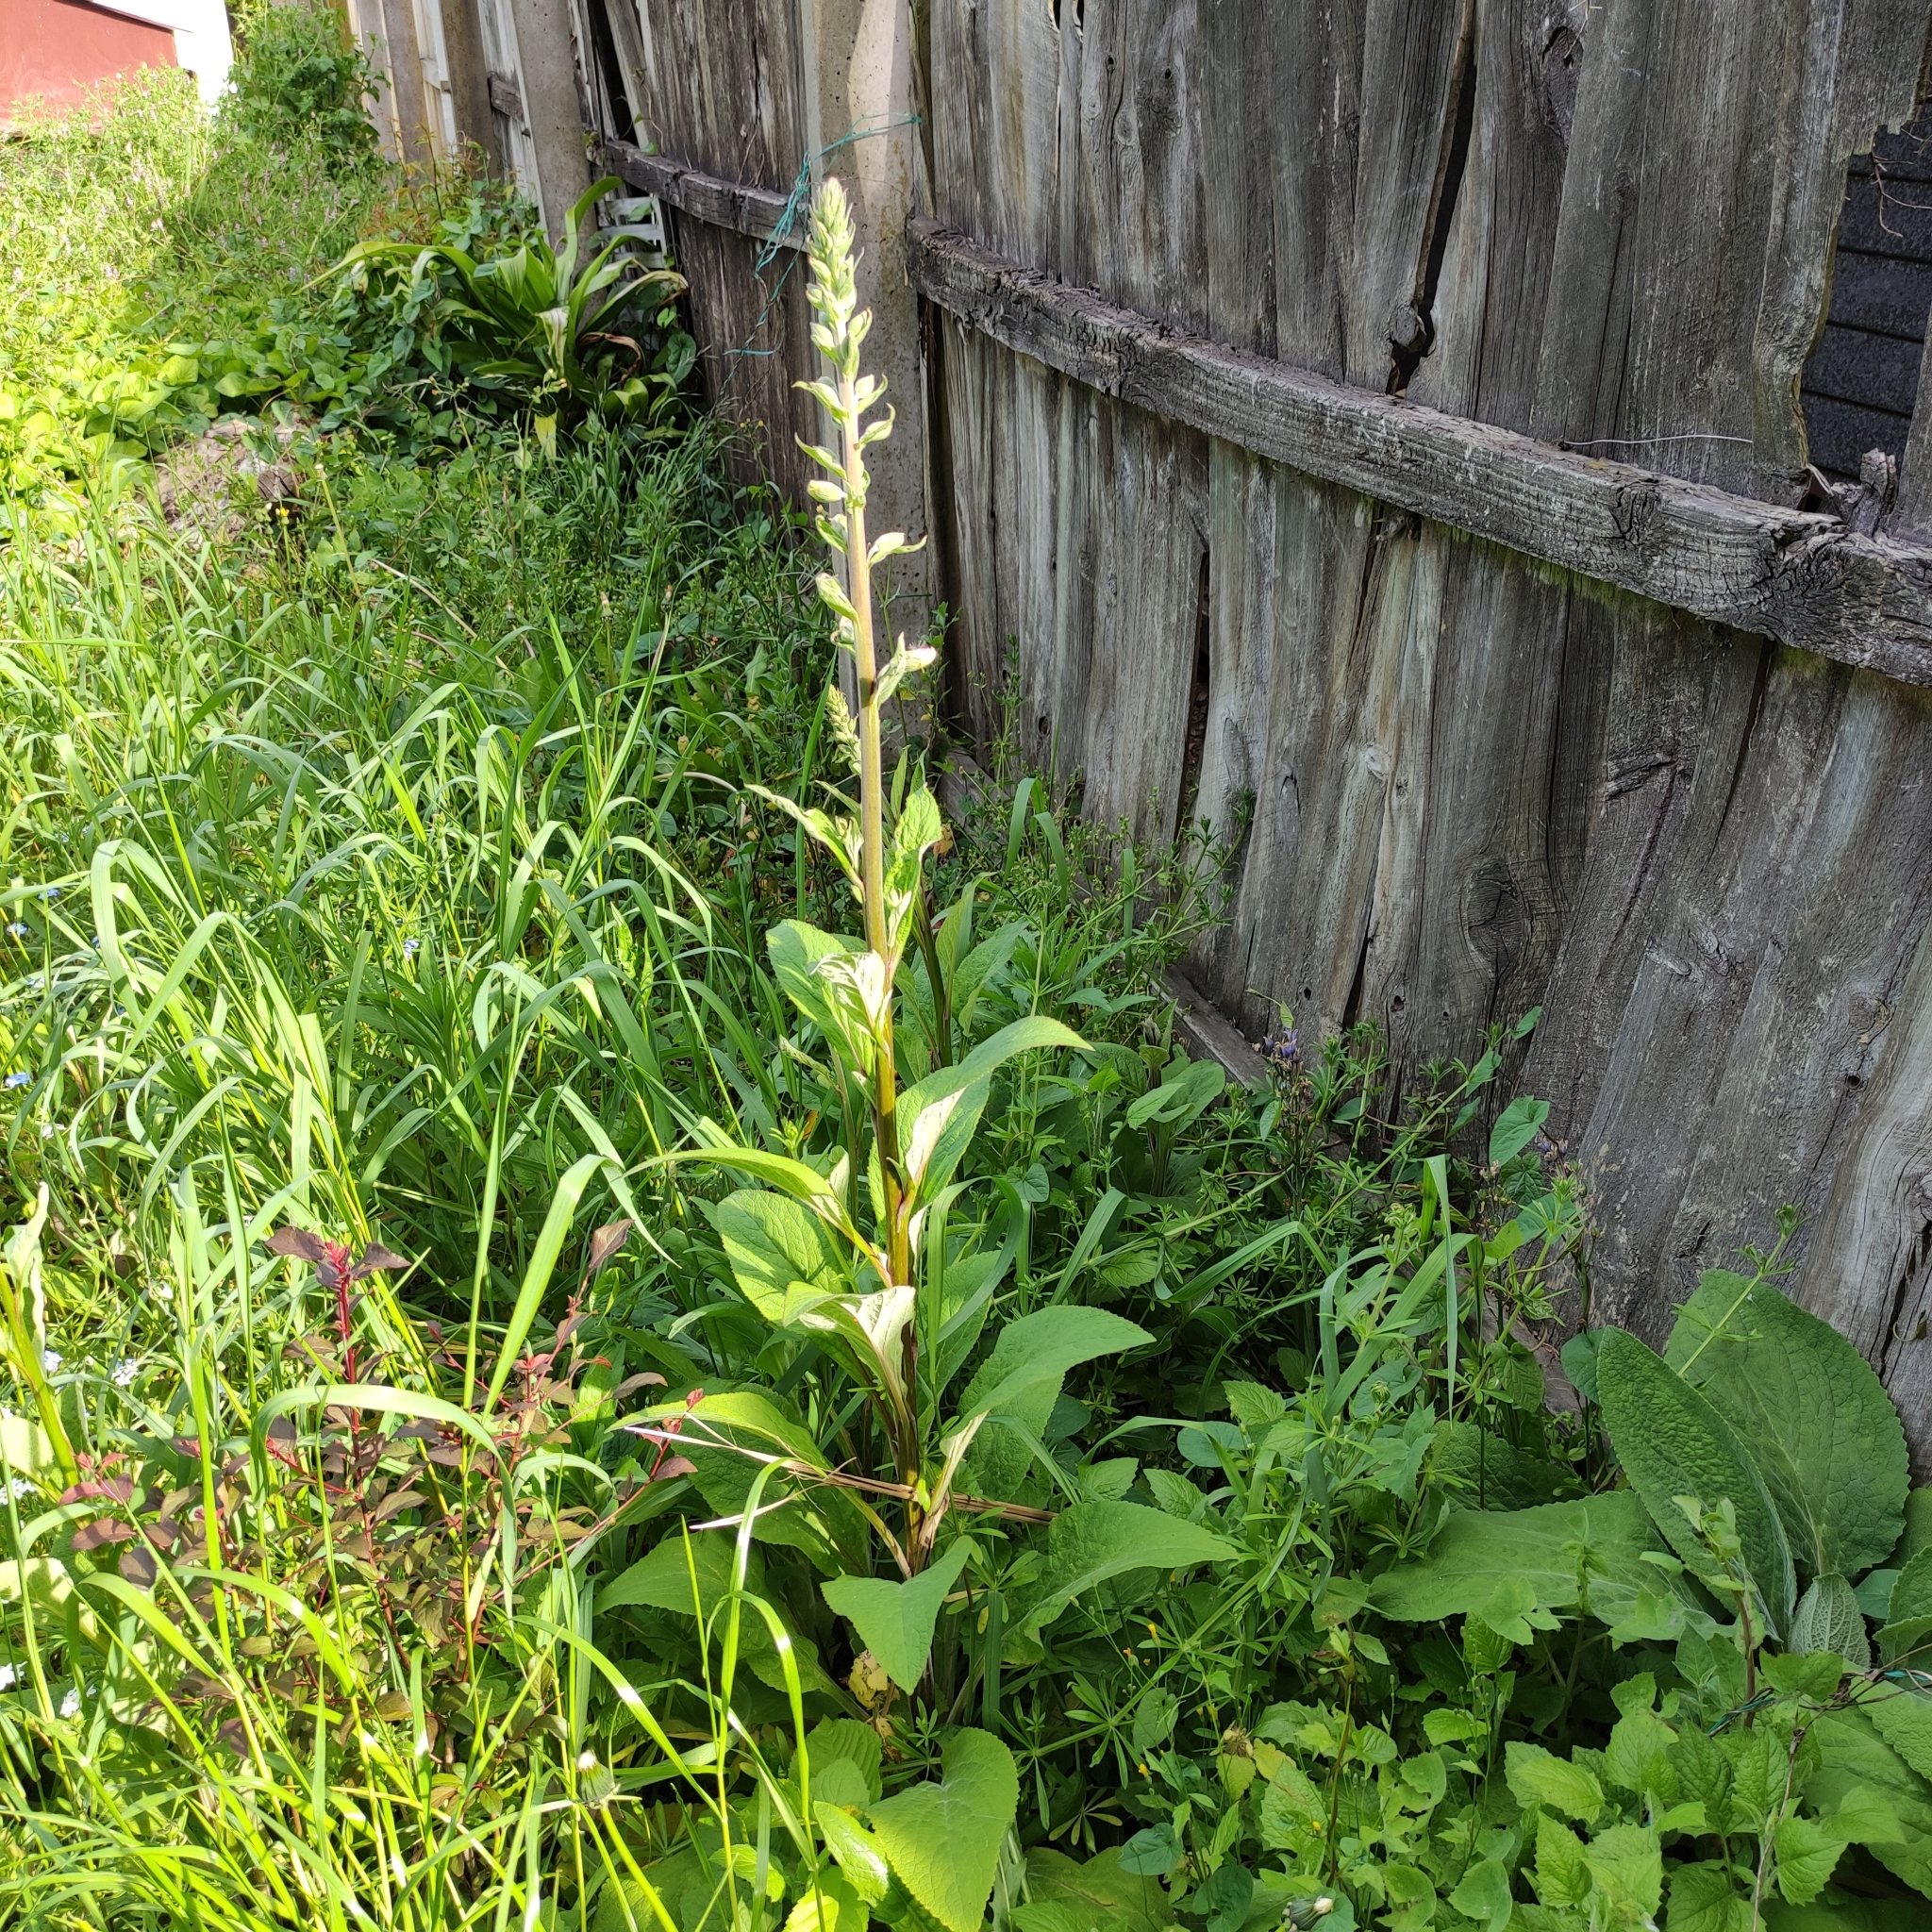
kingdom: Plantae
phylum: Tracheophyta
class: Magnoliopsida
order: Lamiales
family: Plantaginaceae
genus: Digitalis
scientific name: Digitalis purpurea
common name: Foxglove
